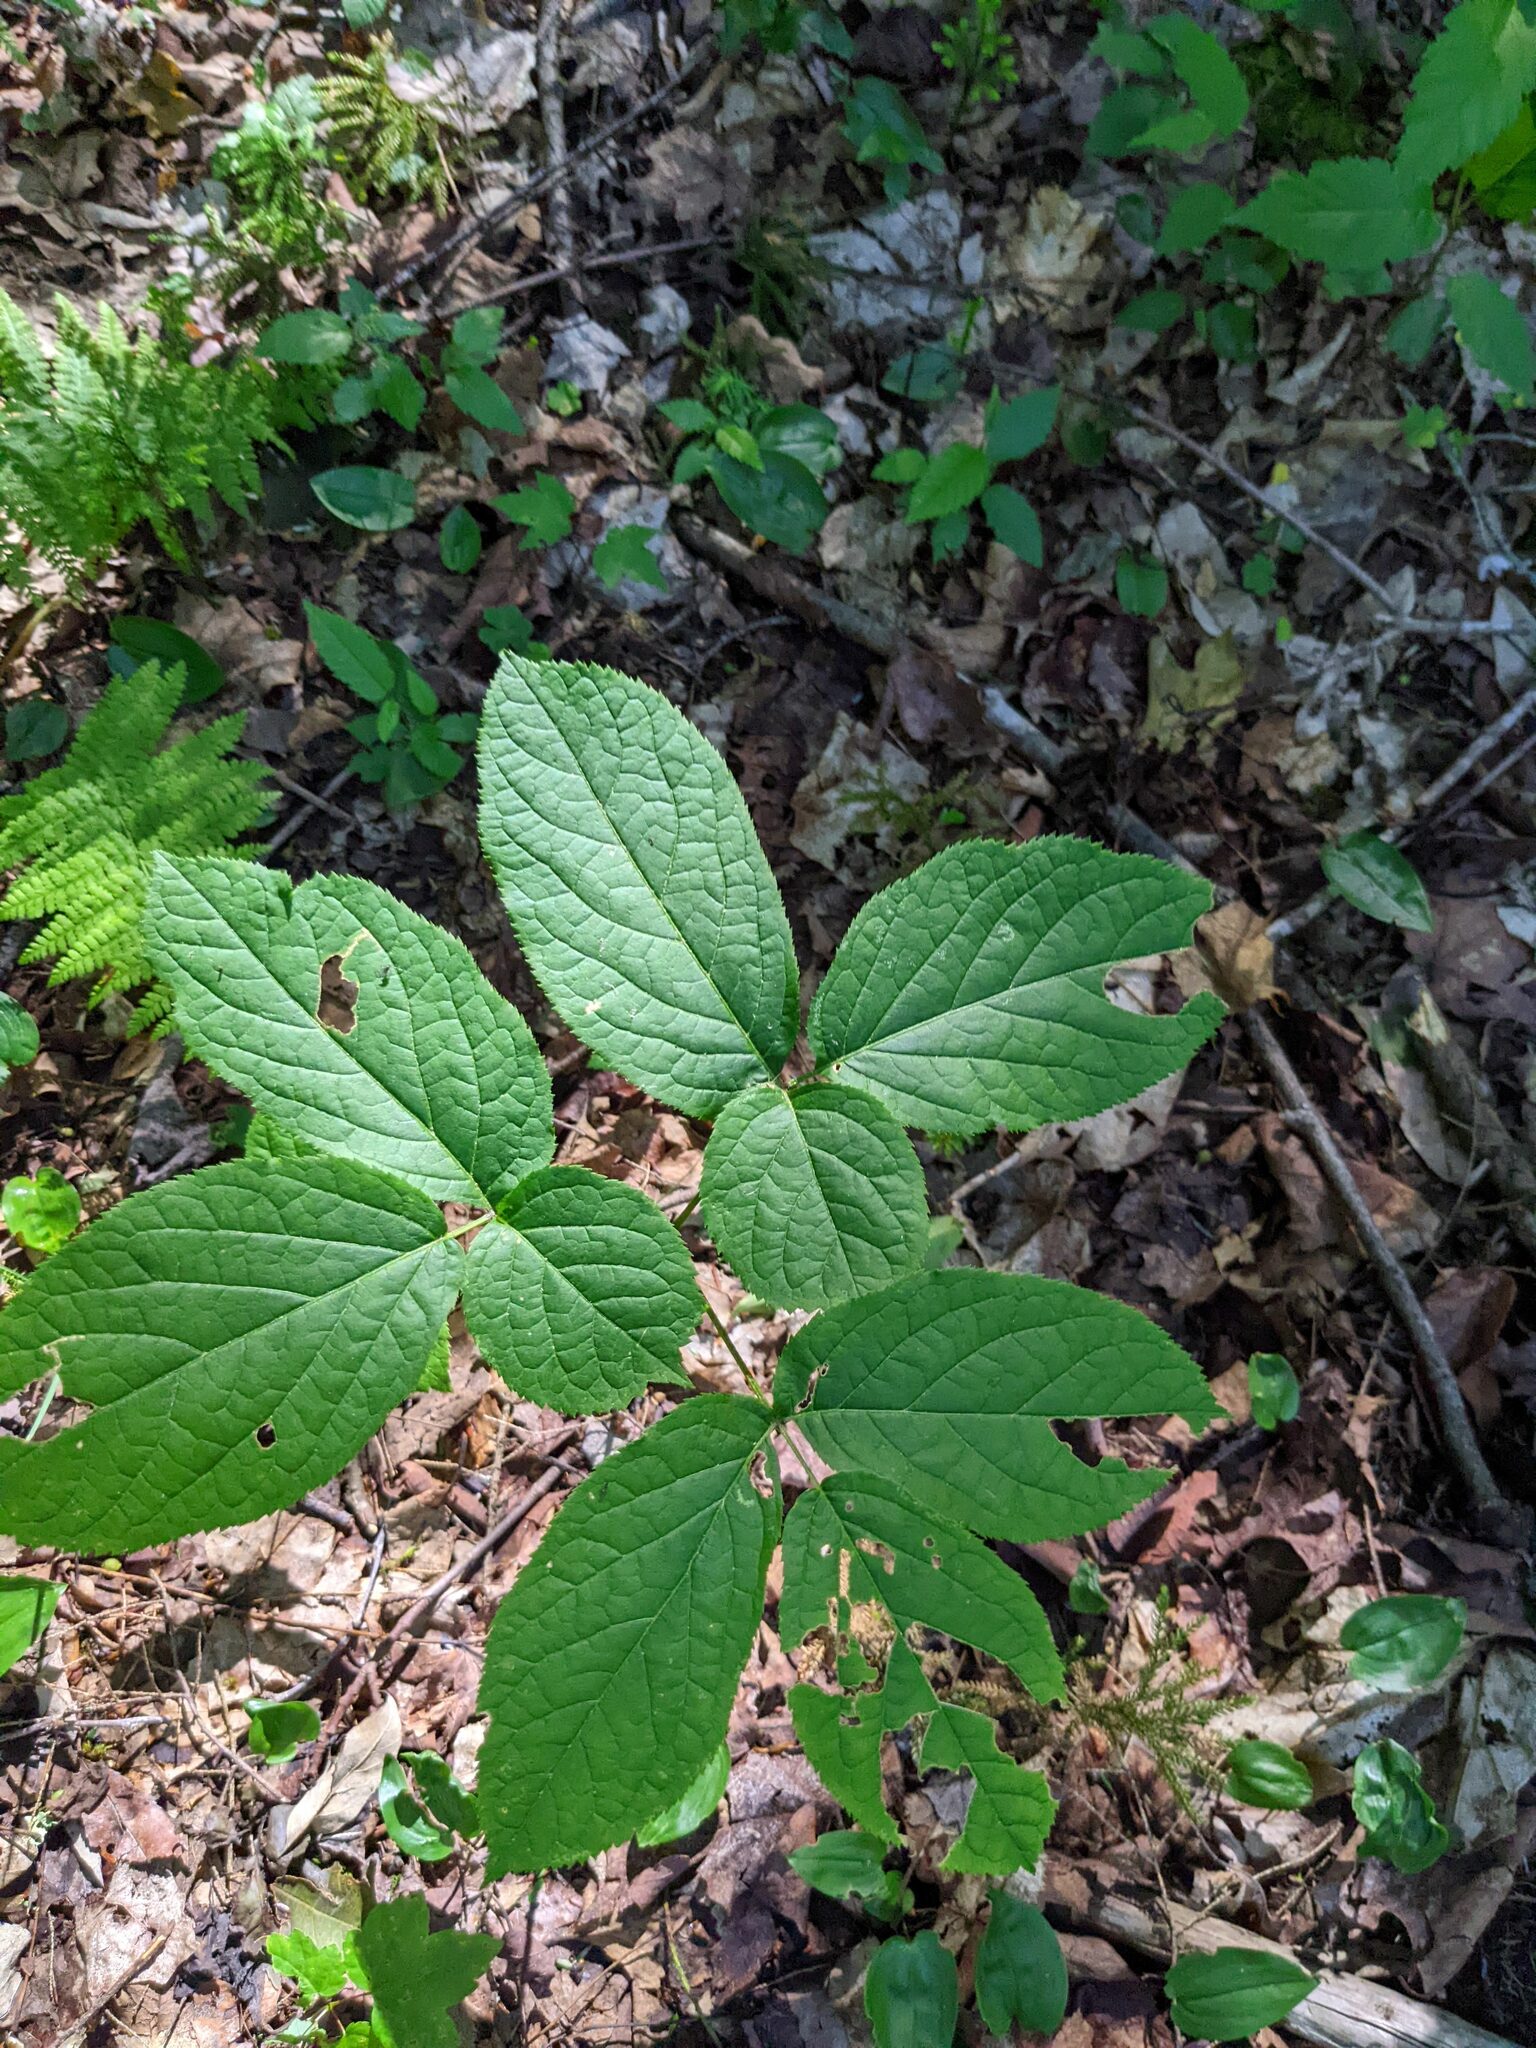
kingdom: Plantae
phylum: Tracheophyta
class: Magnoliopsida
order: Apiales
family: Araliaceae
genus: Aralia
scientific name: Aralia nudicaulis
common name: Wild sarsaparilla
